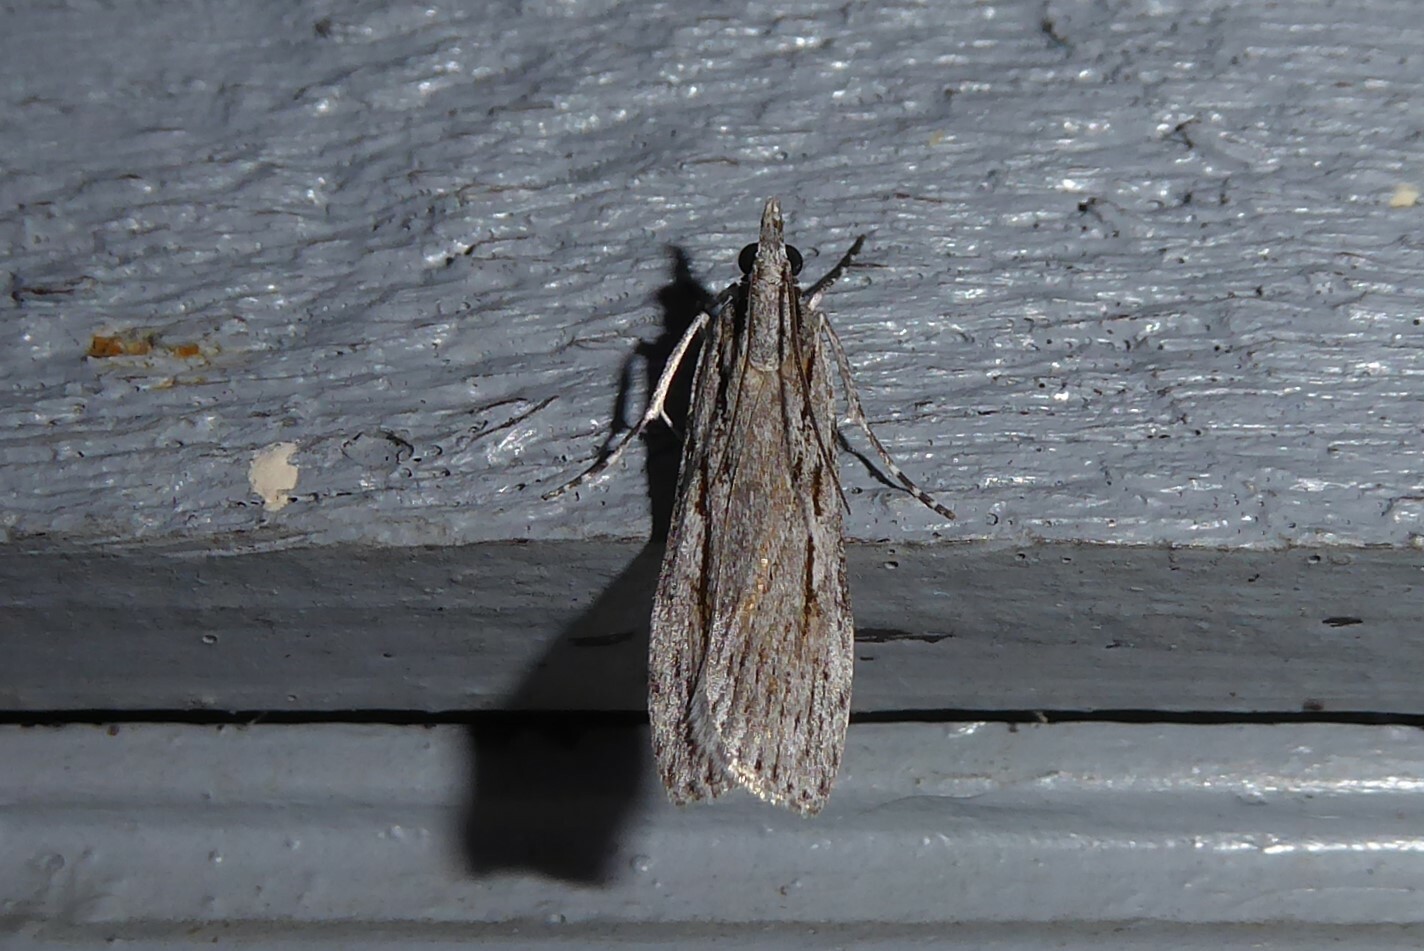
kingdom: Animalia
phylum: Arthropoda
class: Insecta
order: Lepidoptera
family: Crambidae
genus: Scoparia
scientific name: Scoparia indistinctalis
